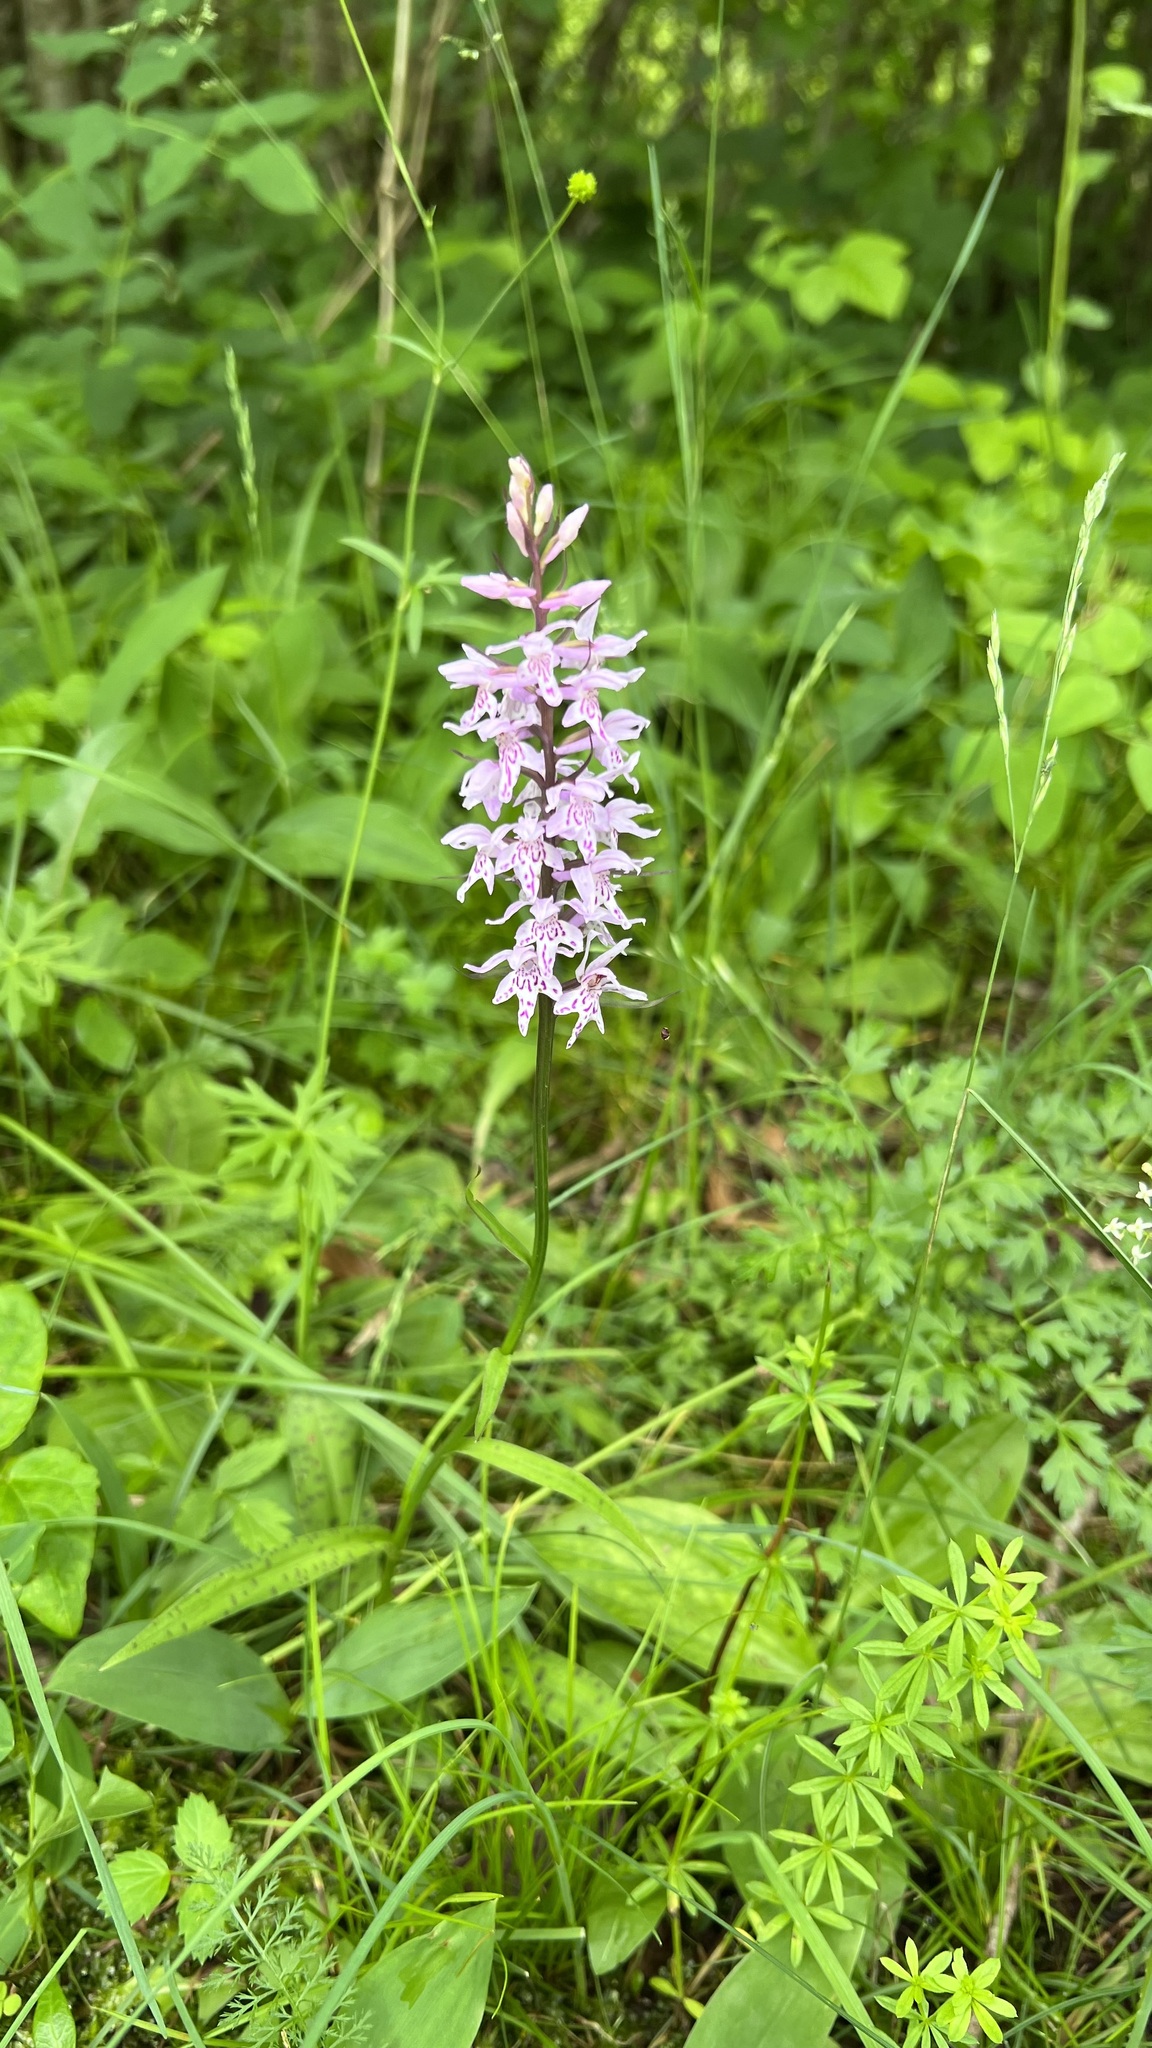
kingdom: Plantae
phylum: Tracheophyta
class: Liliopsida
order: Asparagales
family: Orchidaceae
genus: Dactylorhiza
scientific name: Dactylorhiza maculata
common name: Heath spotted-orchid
